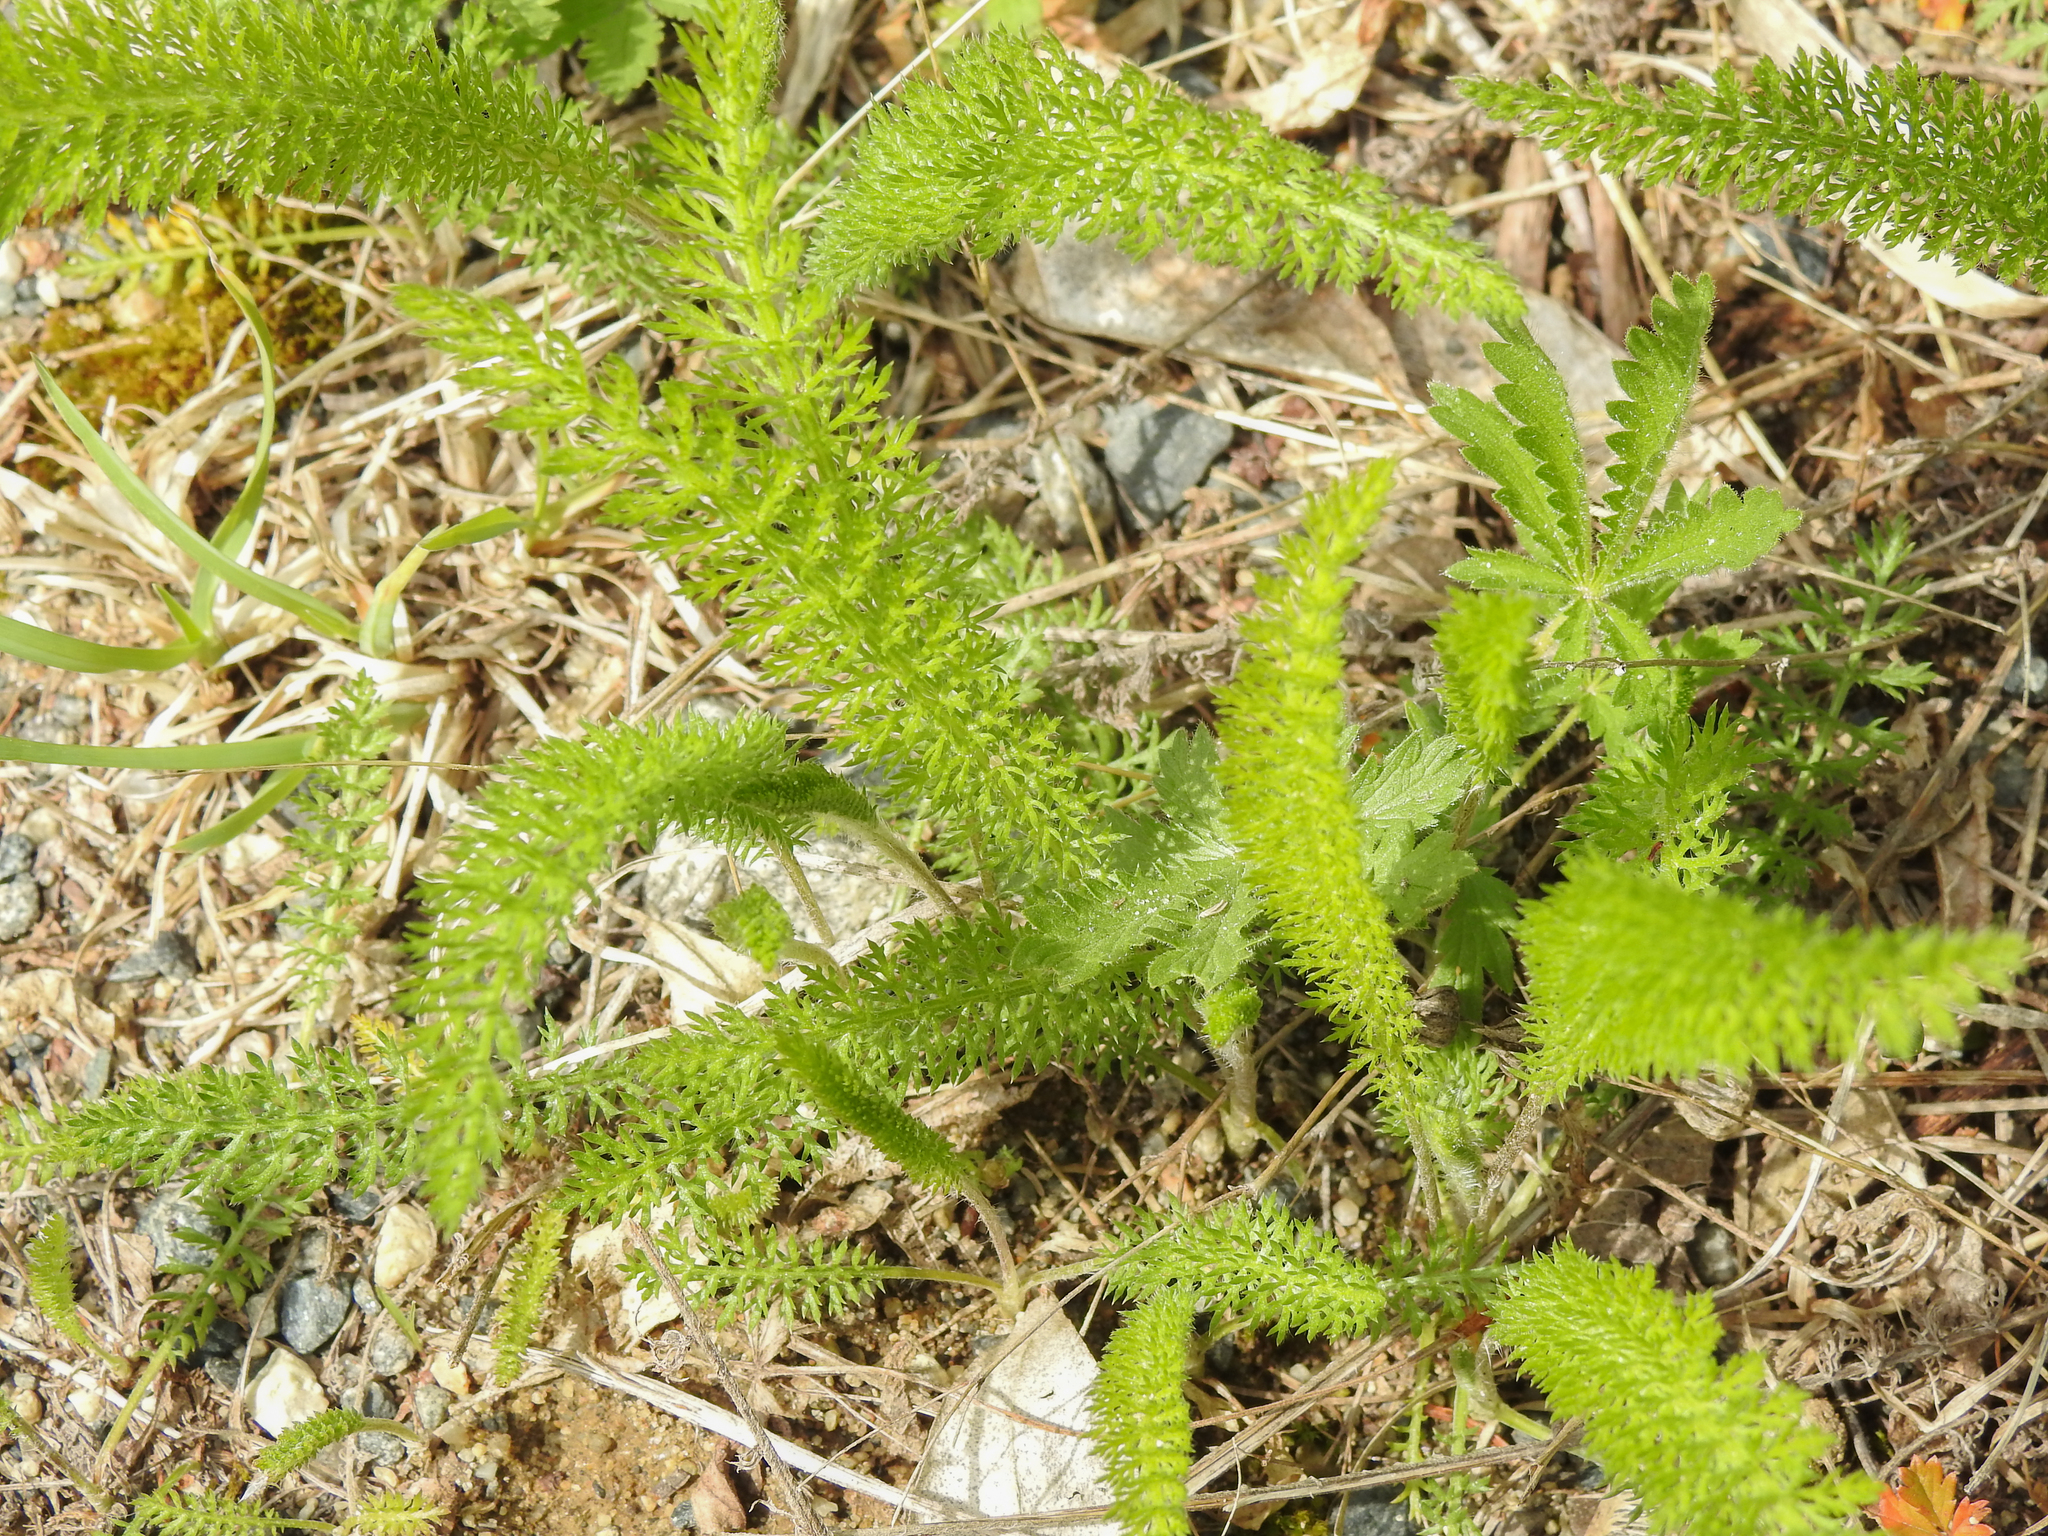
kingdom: Plantae
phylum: Tracheophyta
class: Magnoliopsida
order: Asterales
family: Asteraceae
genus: Achillea
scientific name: Achillea millefolium
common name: Yarrow
